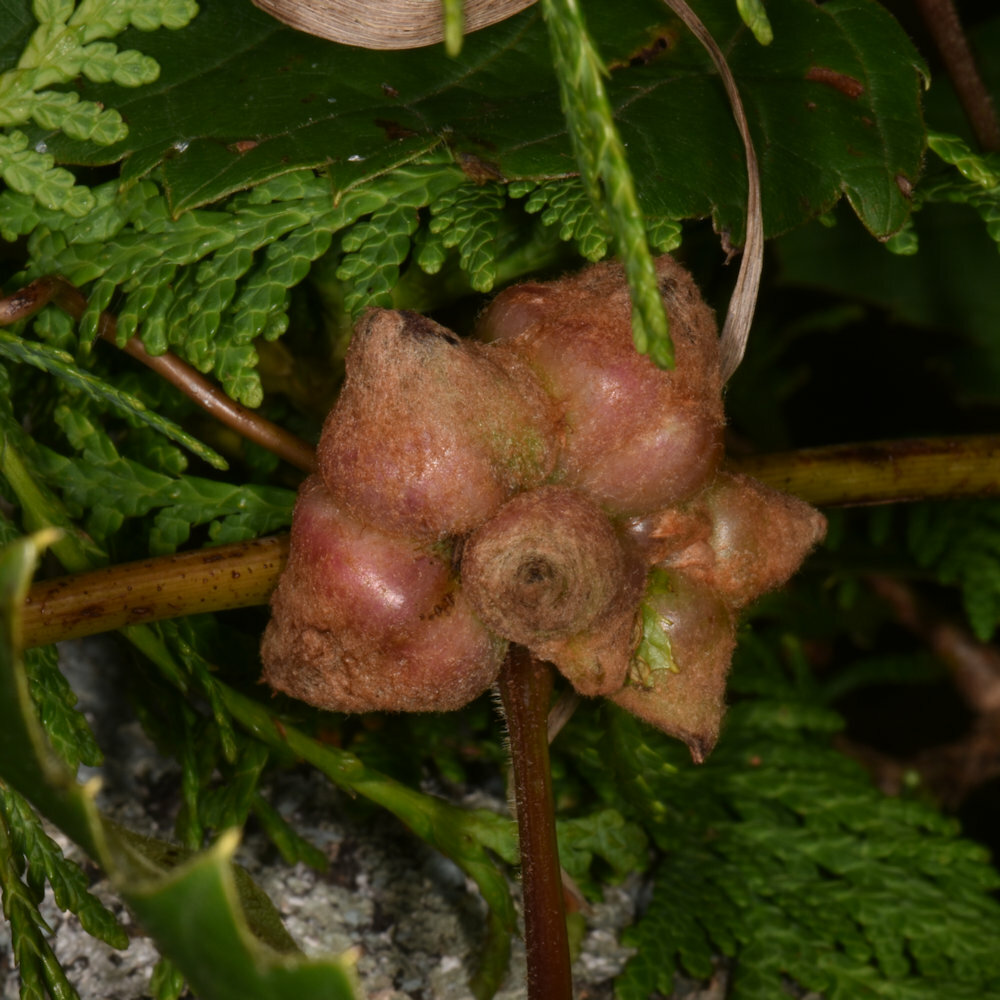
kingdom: Animalia
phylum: Arthropoda
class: Insecta
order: Diptera
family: Cecidomyiidae
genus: Ampelomyia
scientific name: Ampelomyia vitiscoryloides
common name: Grape filbert gall
